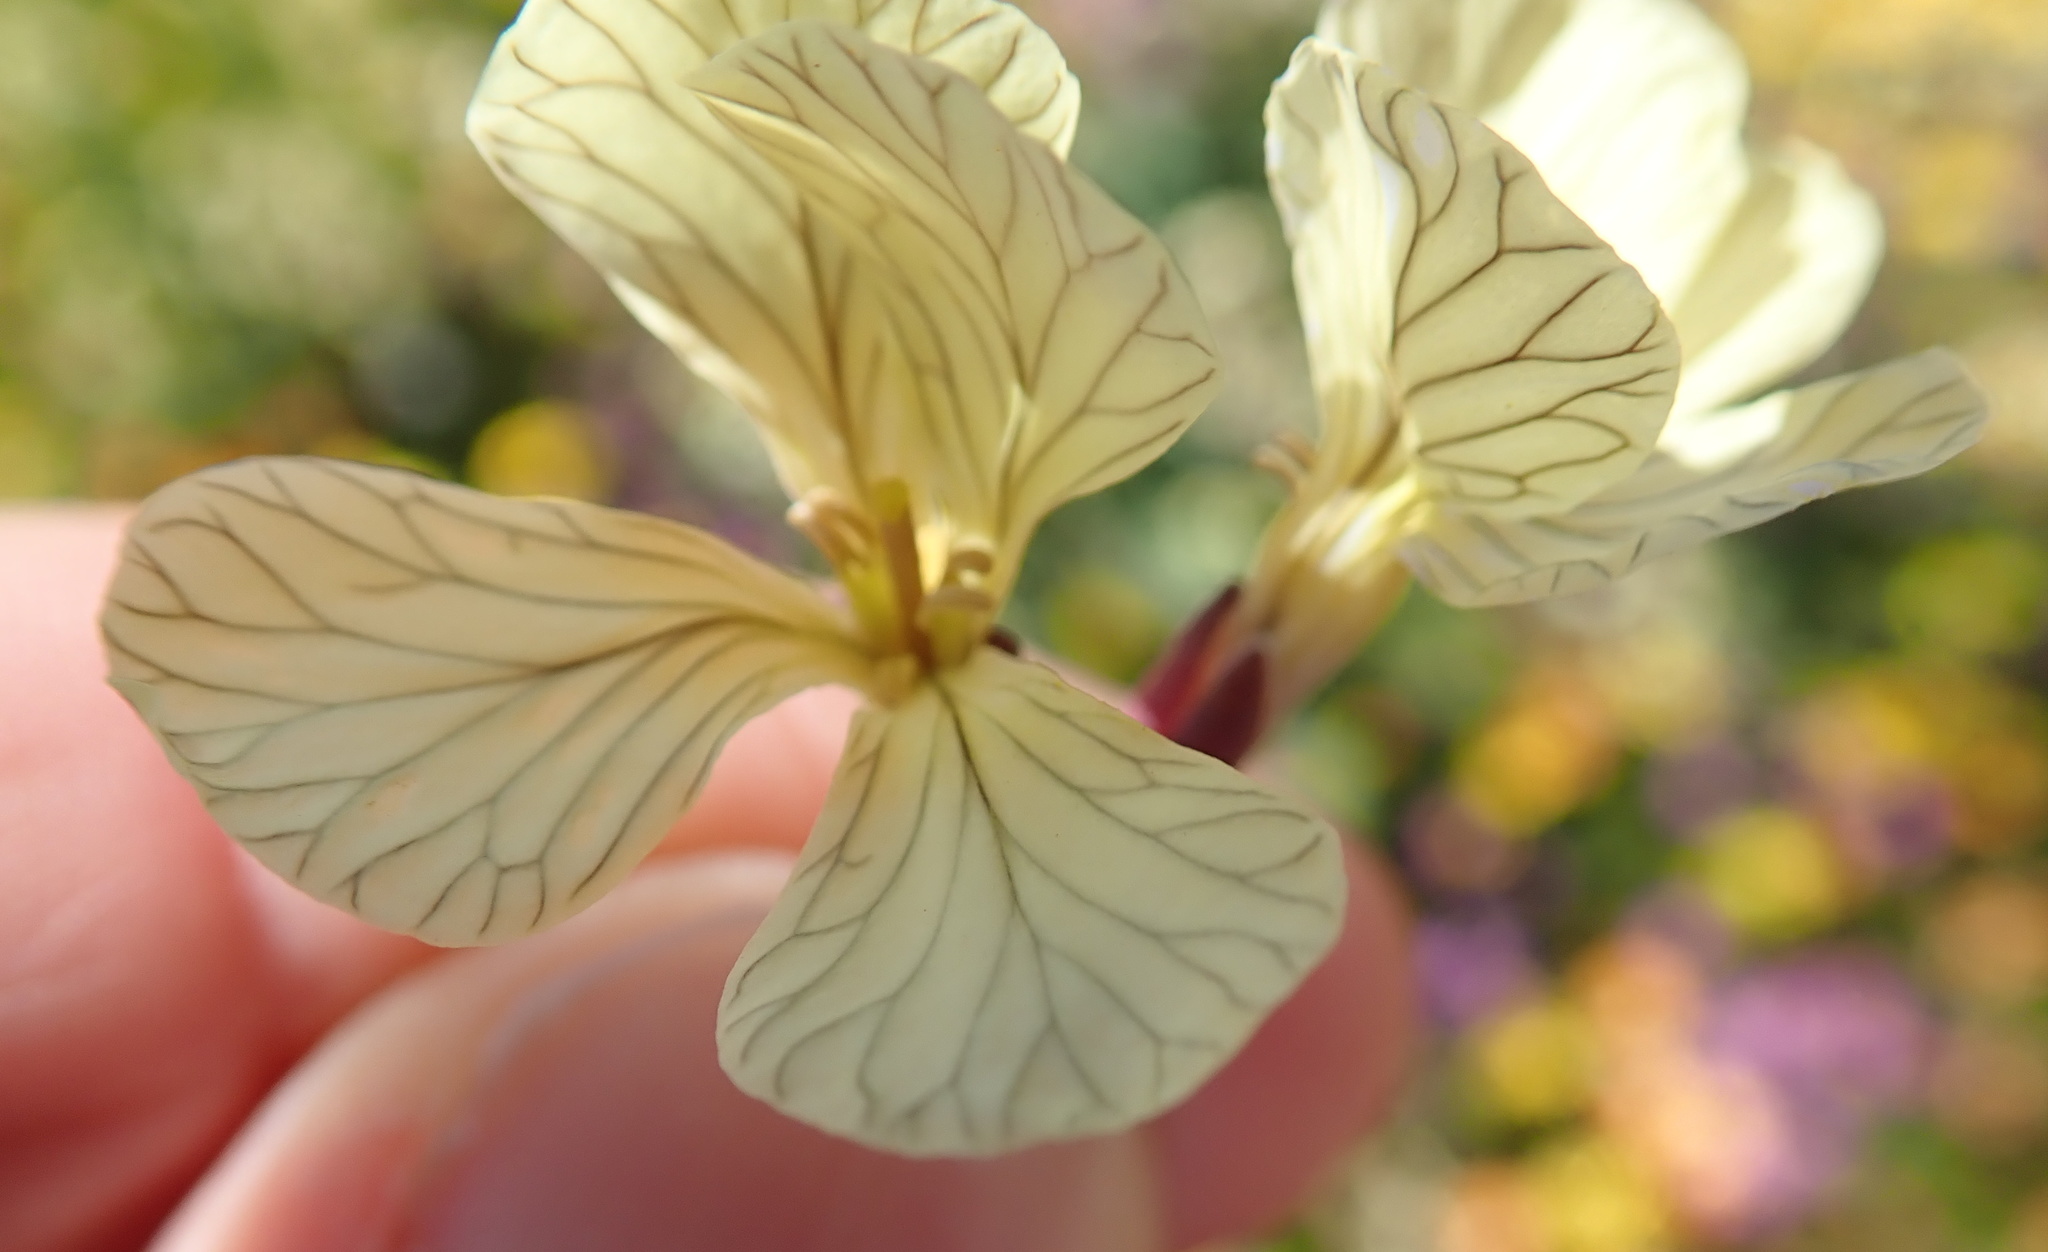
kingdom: Plantae
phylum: Tracheophyta
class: Magnoliopsida
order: Brassicales
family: Brassicaceae
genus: Raphanus
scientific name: Raphanus raphanistrum
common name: Wild radish
